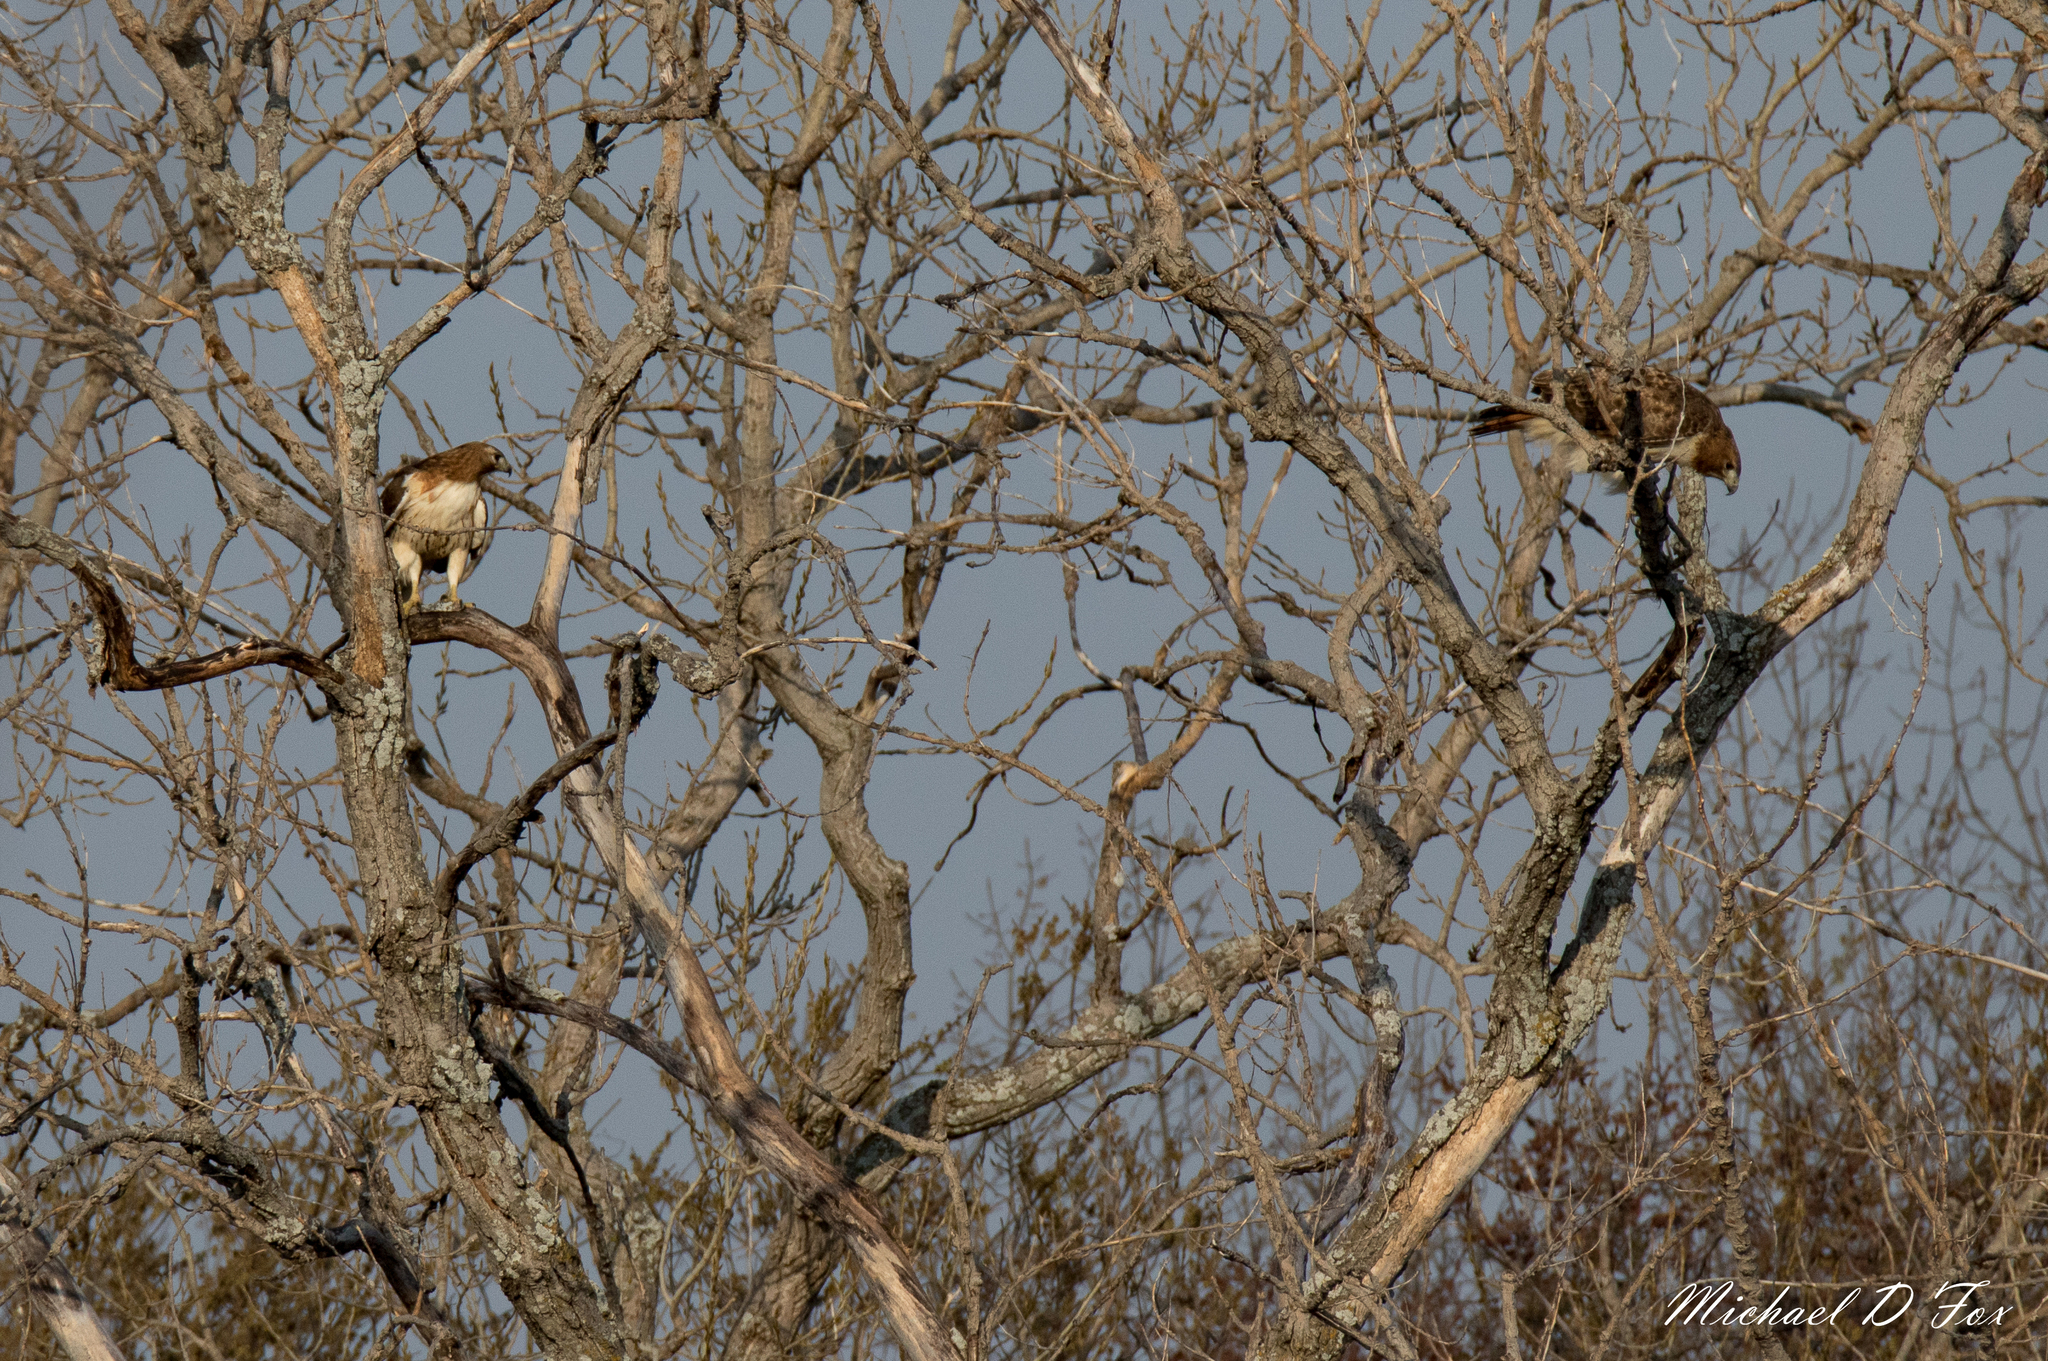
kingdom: Animalia
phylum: Chordata
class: Aves
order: Accipitriformes
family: Accipitridae
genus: Buteo
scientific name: Buteo jamaicensis
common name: Red-tailed hawk
